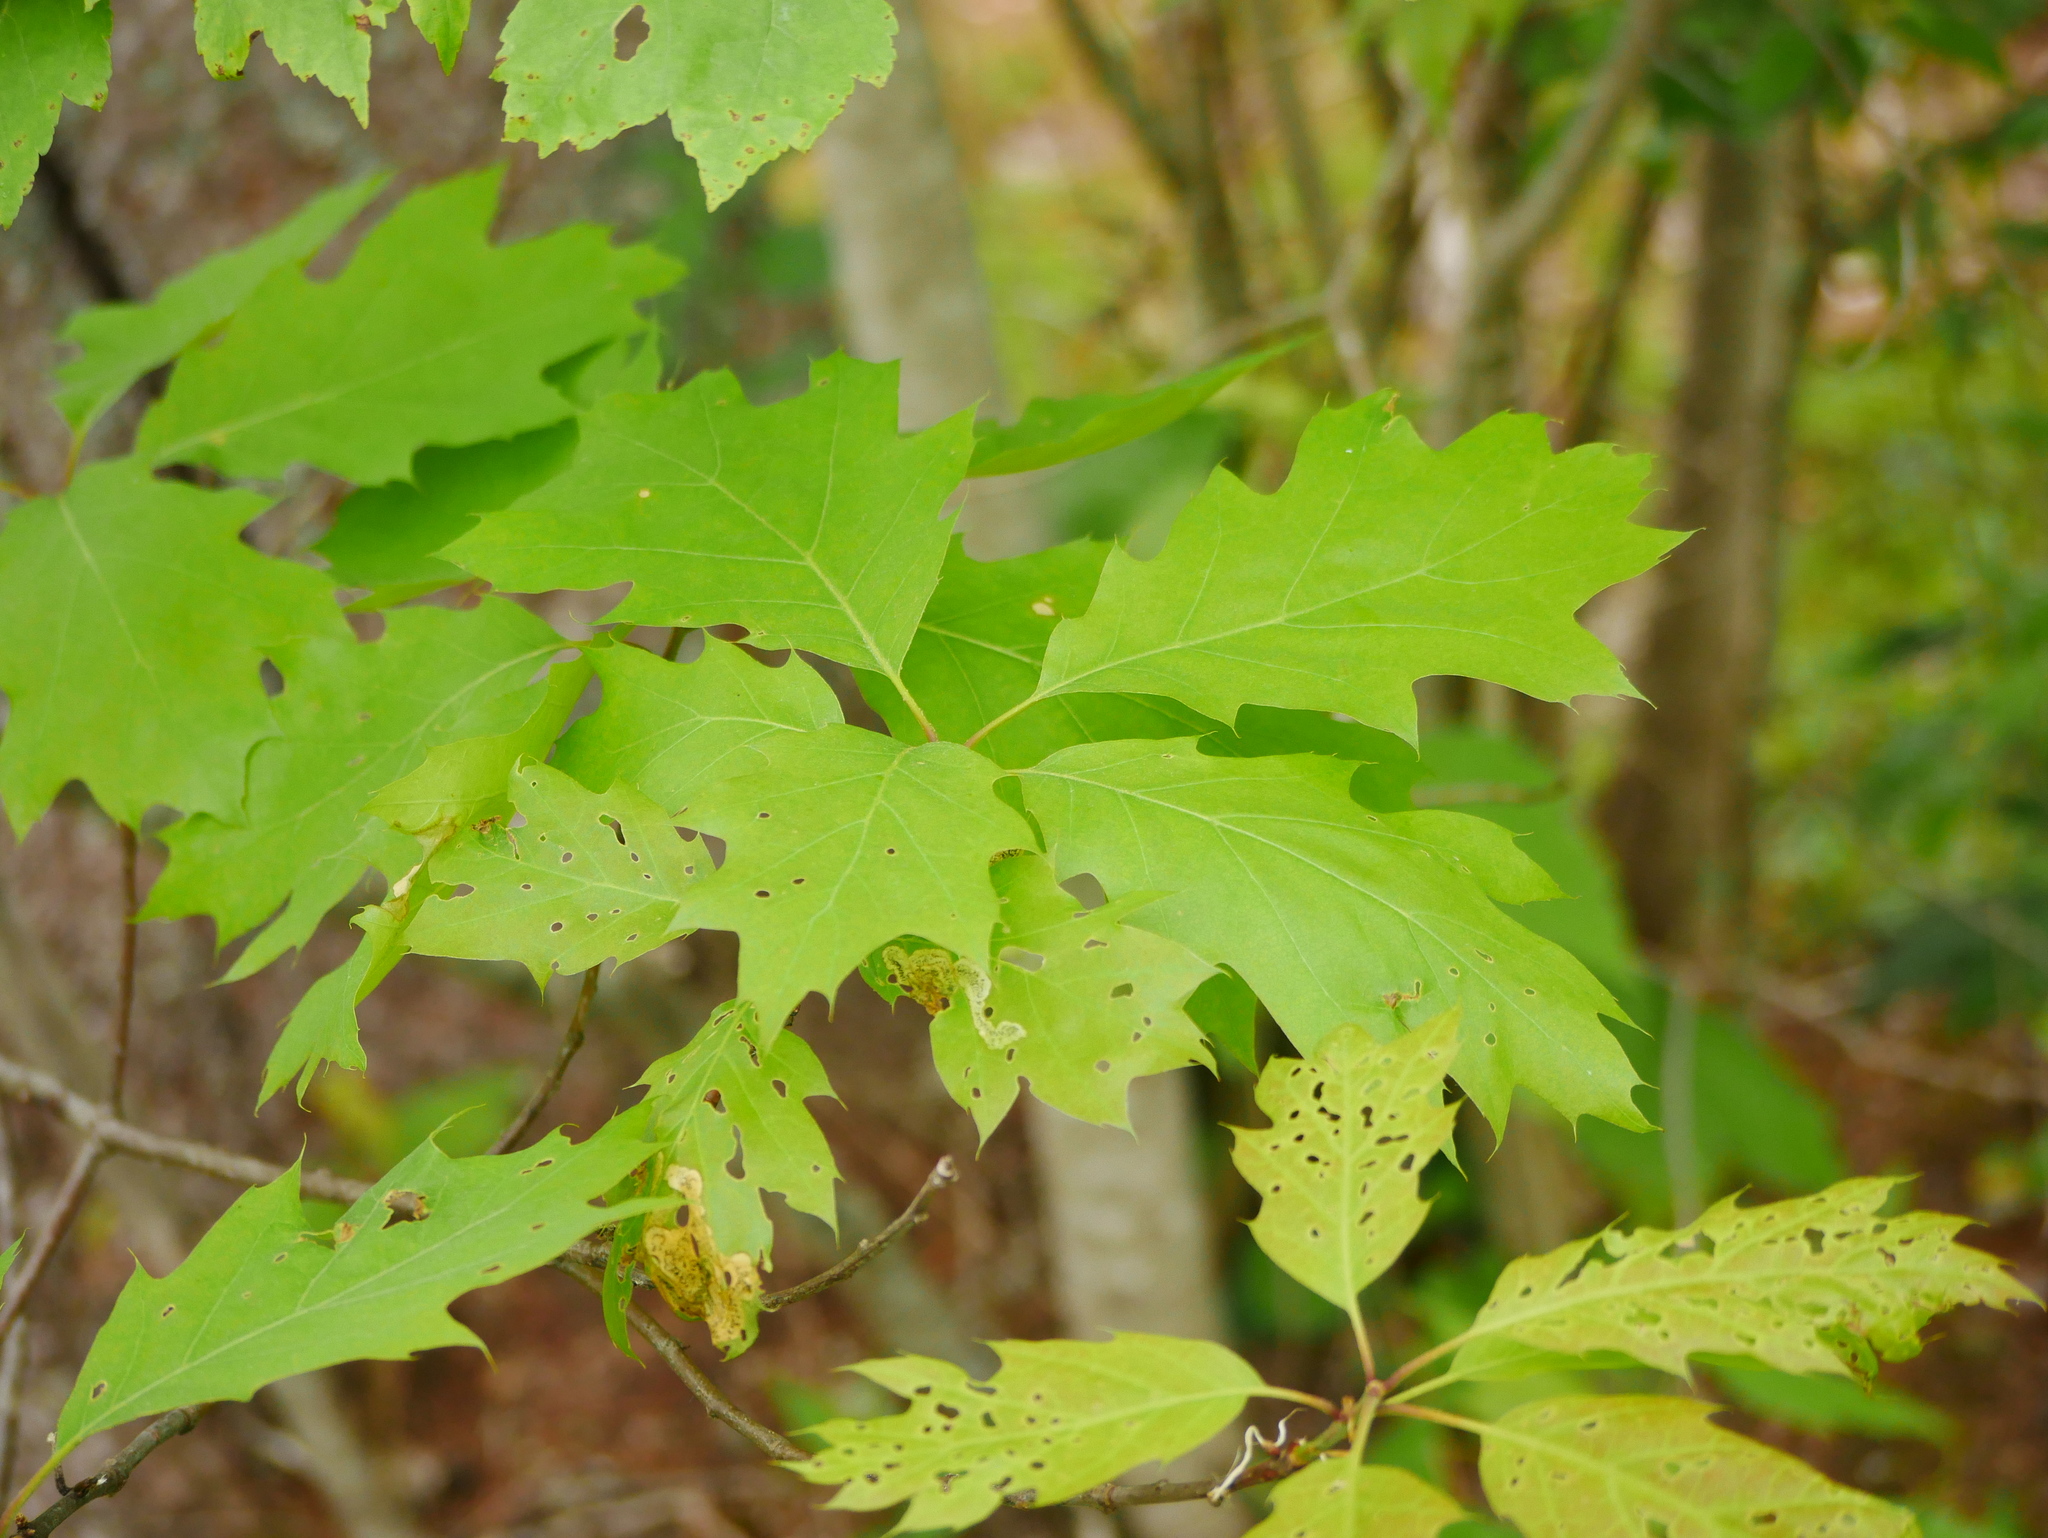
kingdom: Plantae
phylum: Tracheophyta
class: Magnoliopsida
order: Fagales
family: Fagaceae
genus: Quercus
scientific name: Quercus rubra
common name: Red oak
